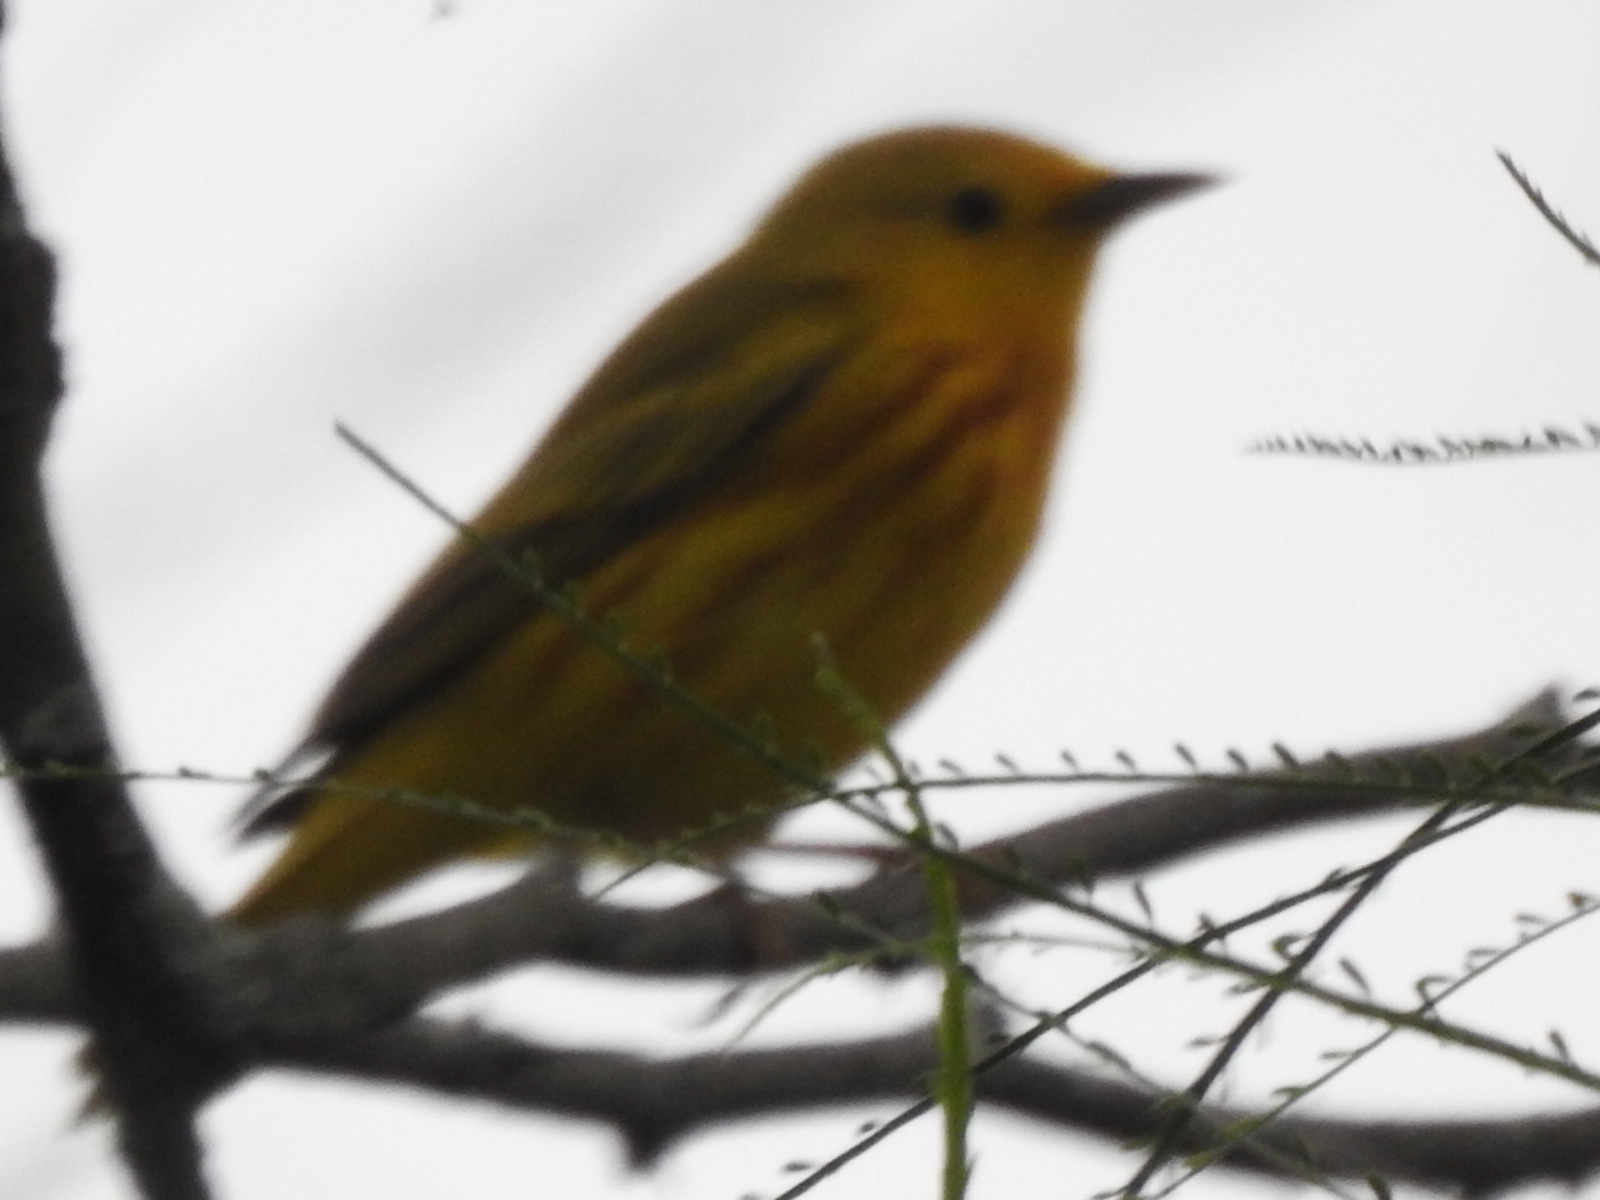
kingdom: Animalia
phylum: Chordata
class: Aves
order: Passeriformes
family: Parulidae
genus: Setophaga
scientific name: Setophaga petechia
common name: Yellow warbler
